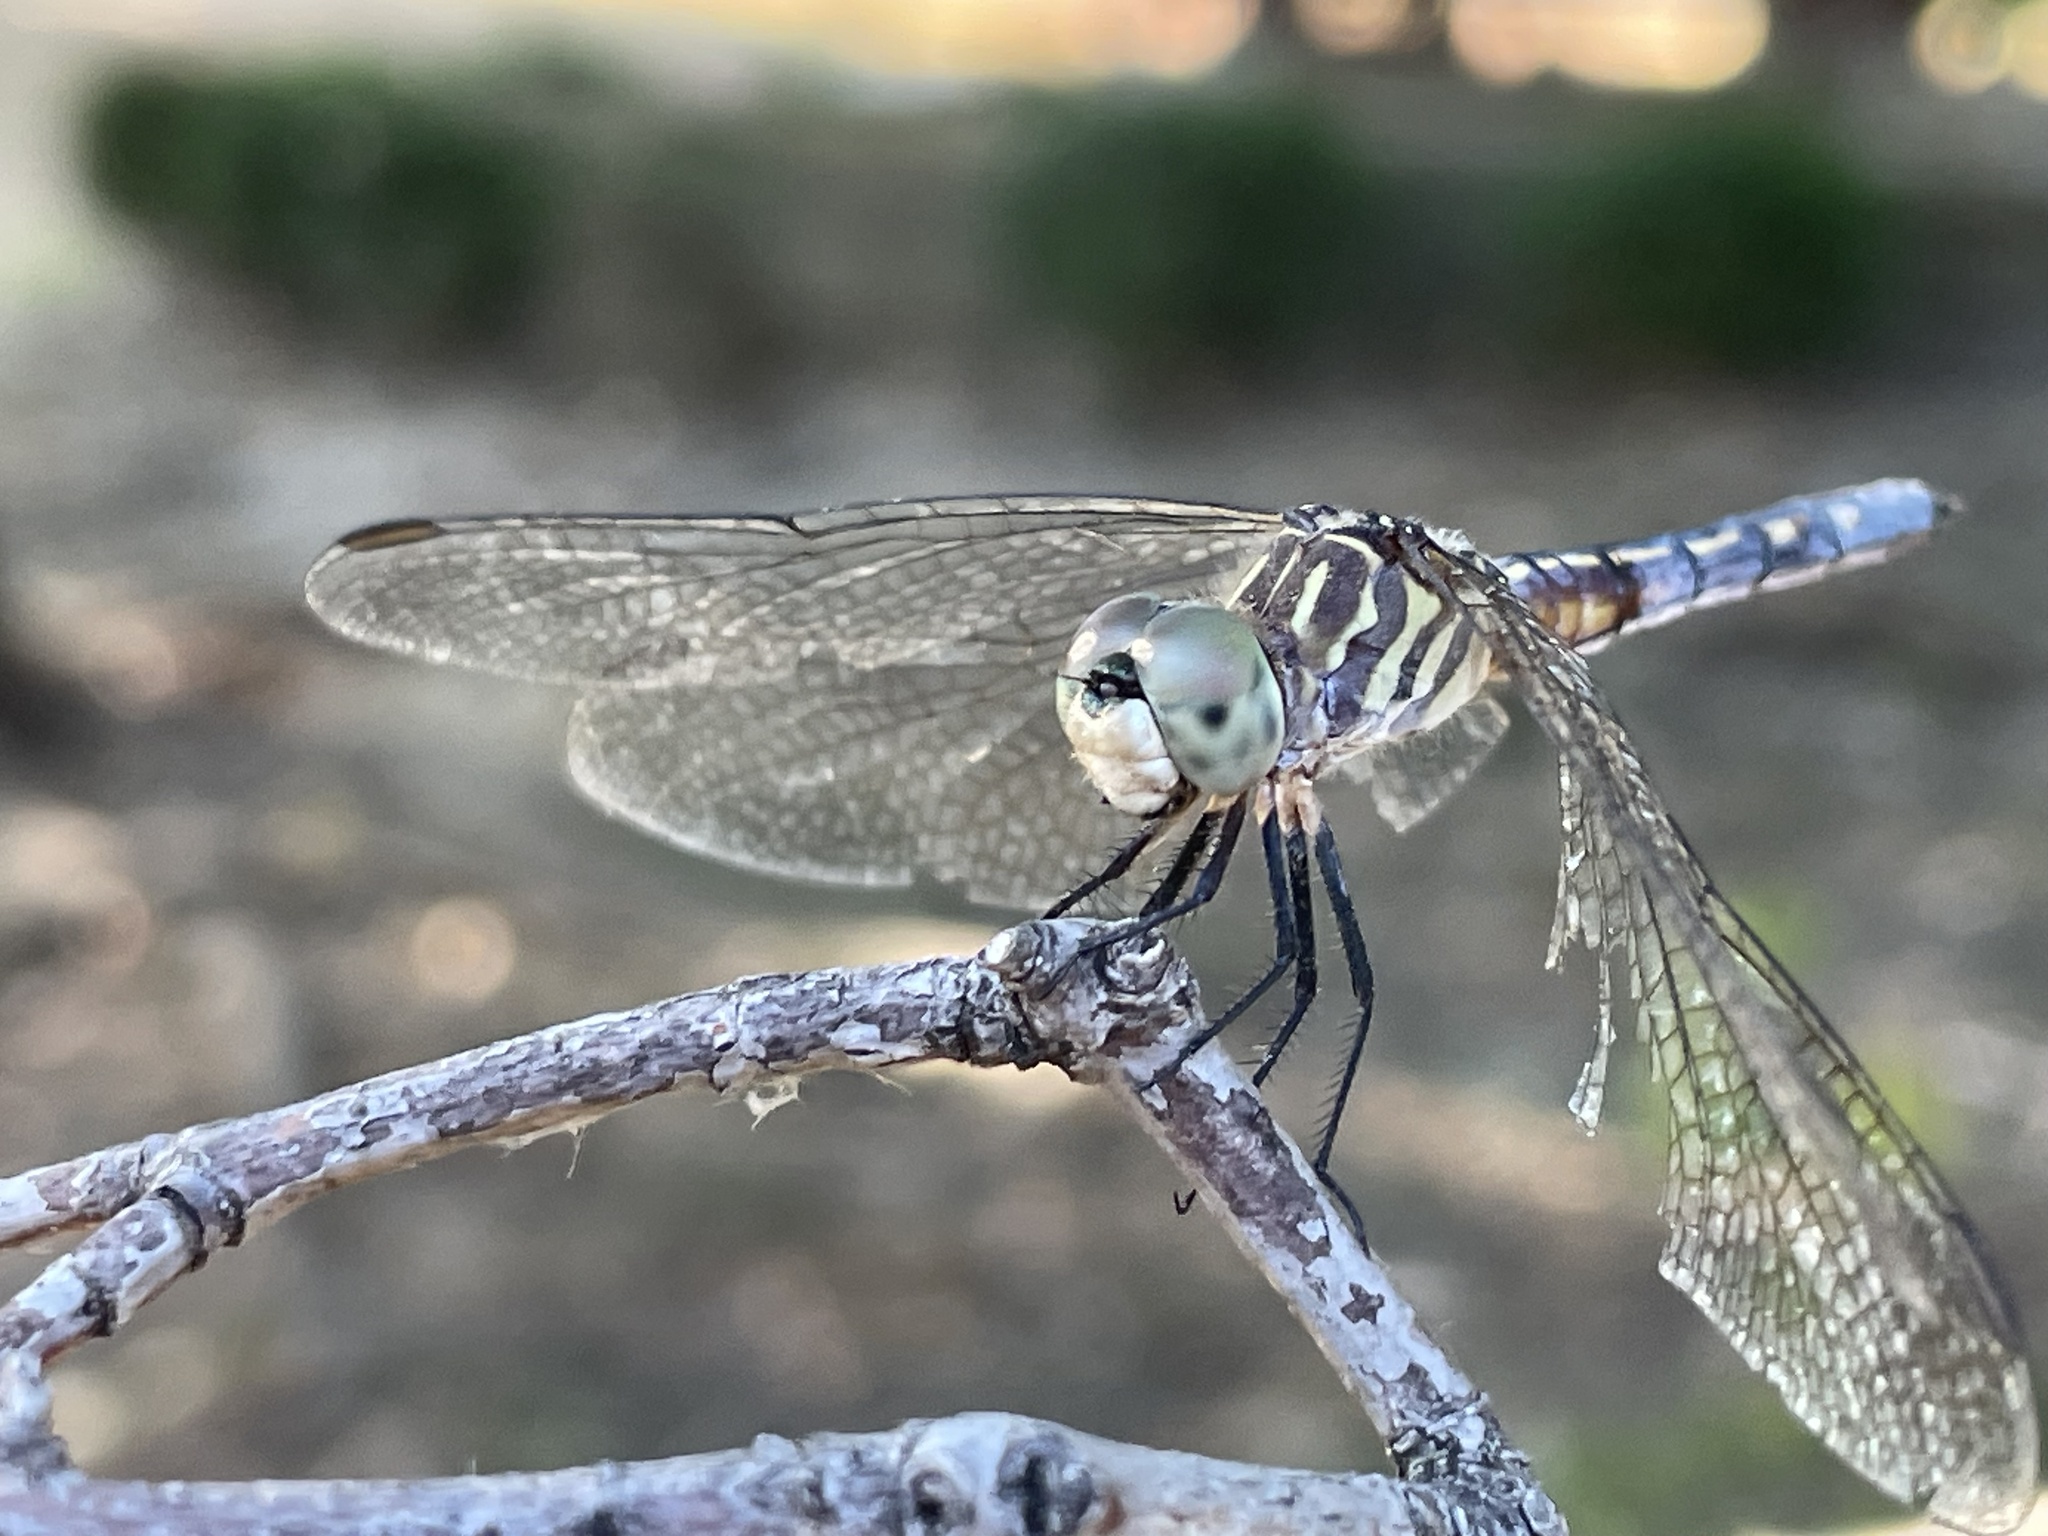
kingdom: Animalia
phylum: Arthropoda
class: Insecta
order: Odonata
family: Libellulidae
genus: Pachydiplax
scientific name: Pachydiplax longipennis
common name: Blue dasher
